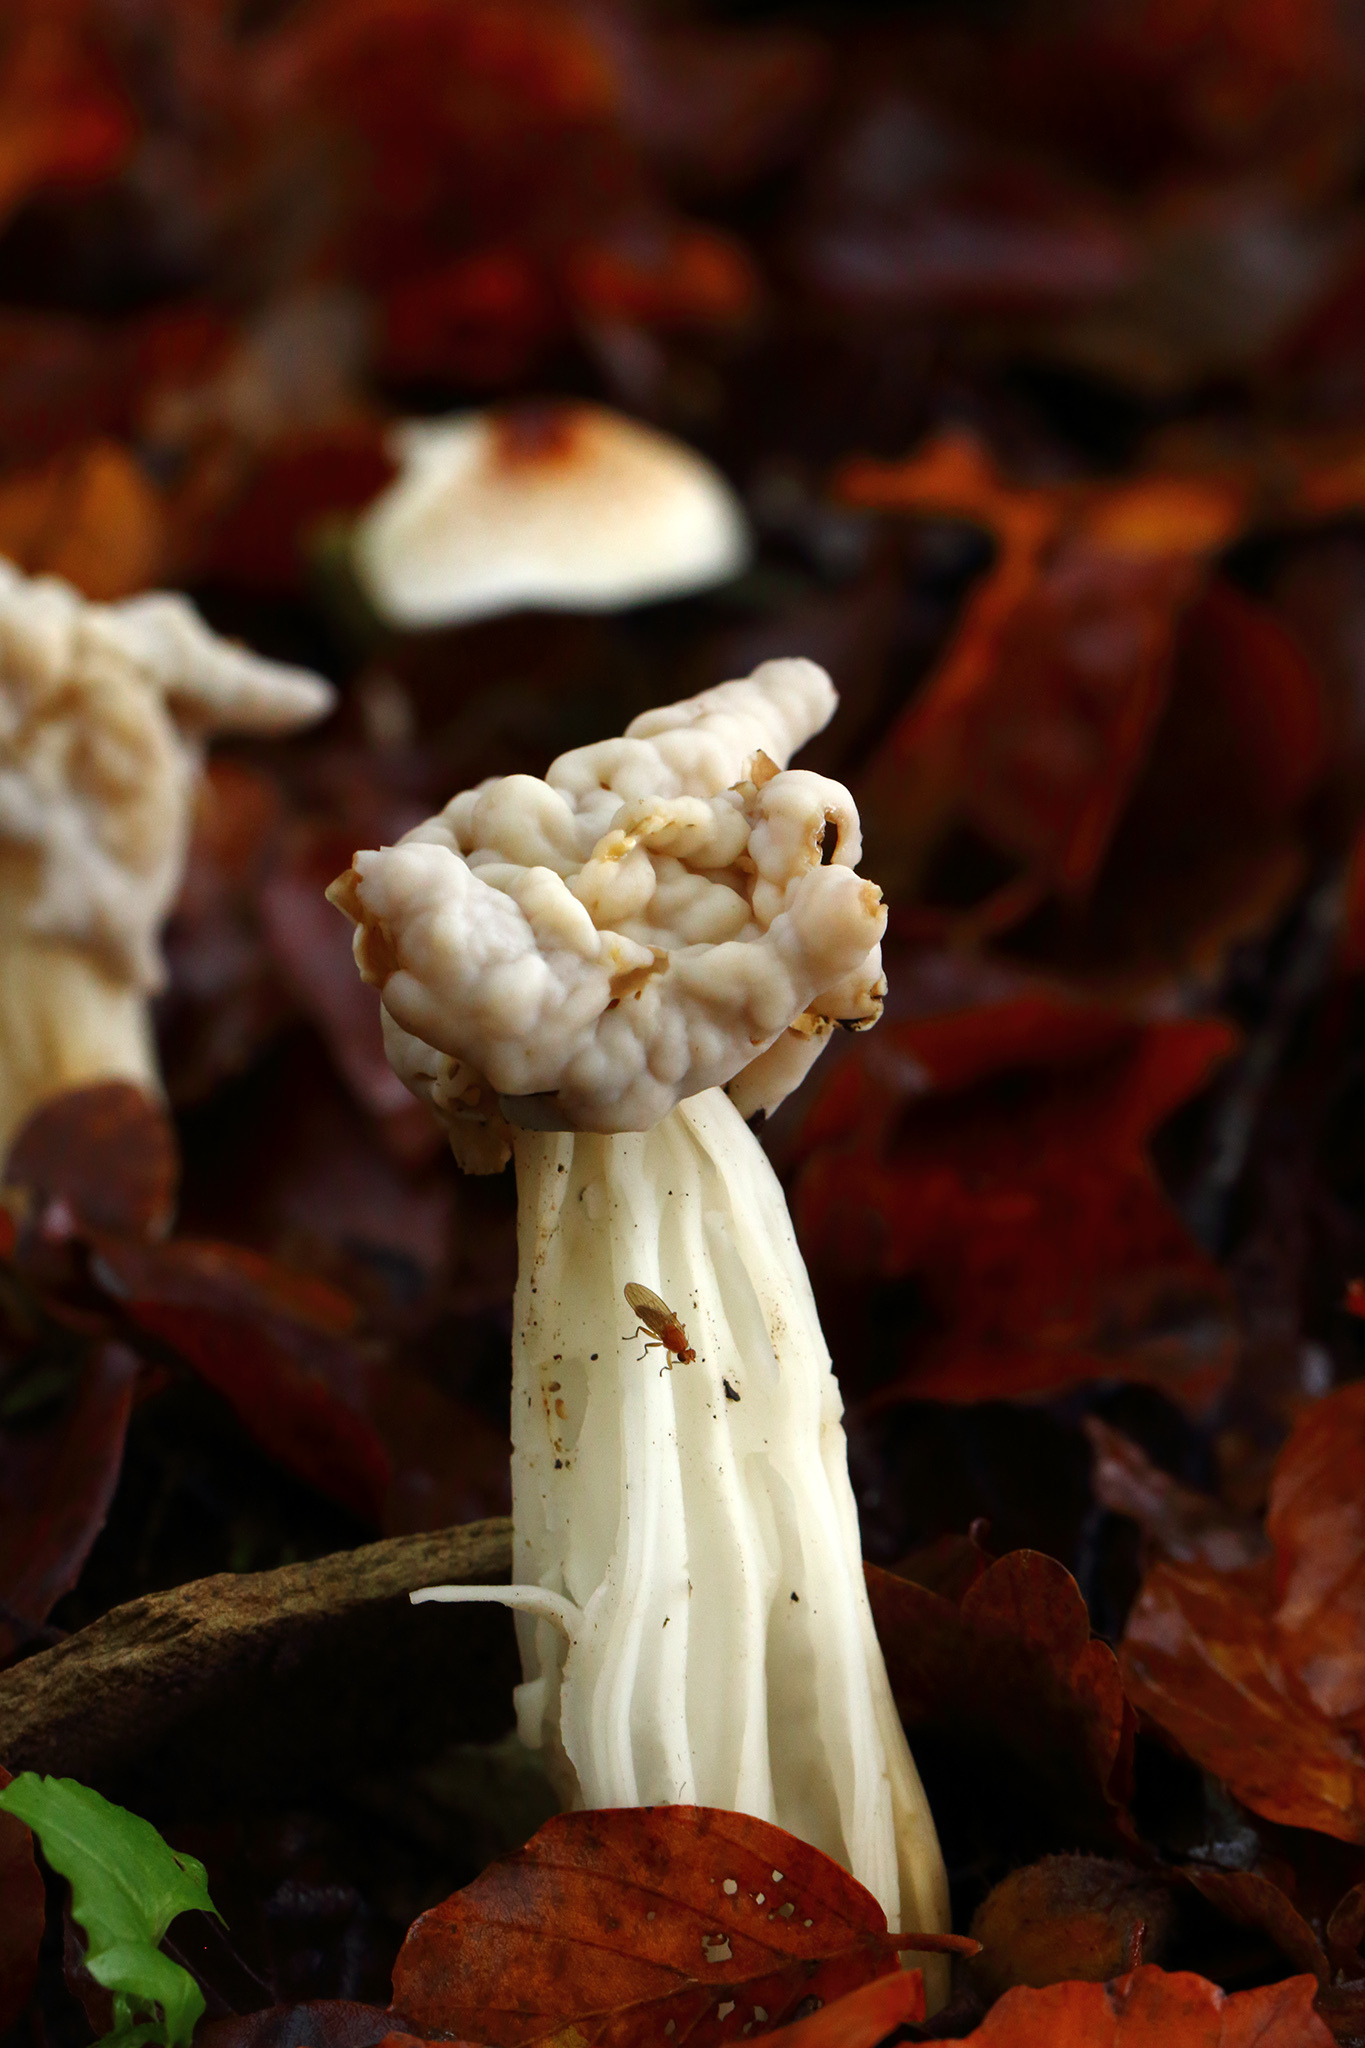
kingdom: Fungi
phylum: Ascomycota
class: Pezizomycetes
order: Pezizales
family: Helvellaceae
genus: Helvella
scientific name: Helvella crispa
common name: White saddle
